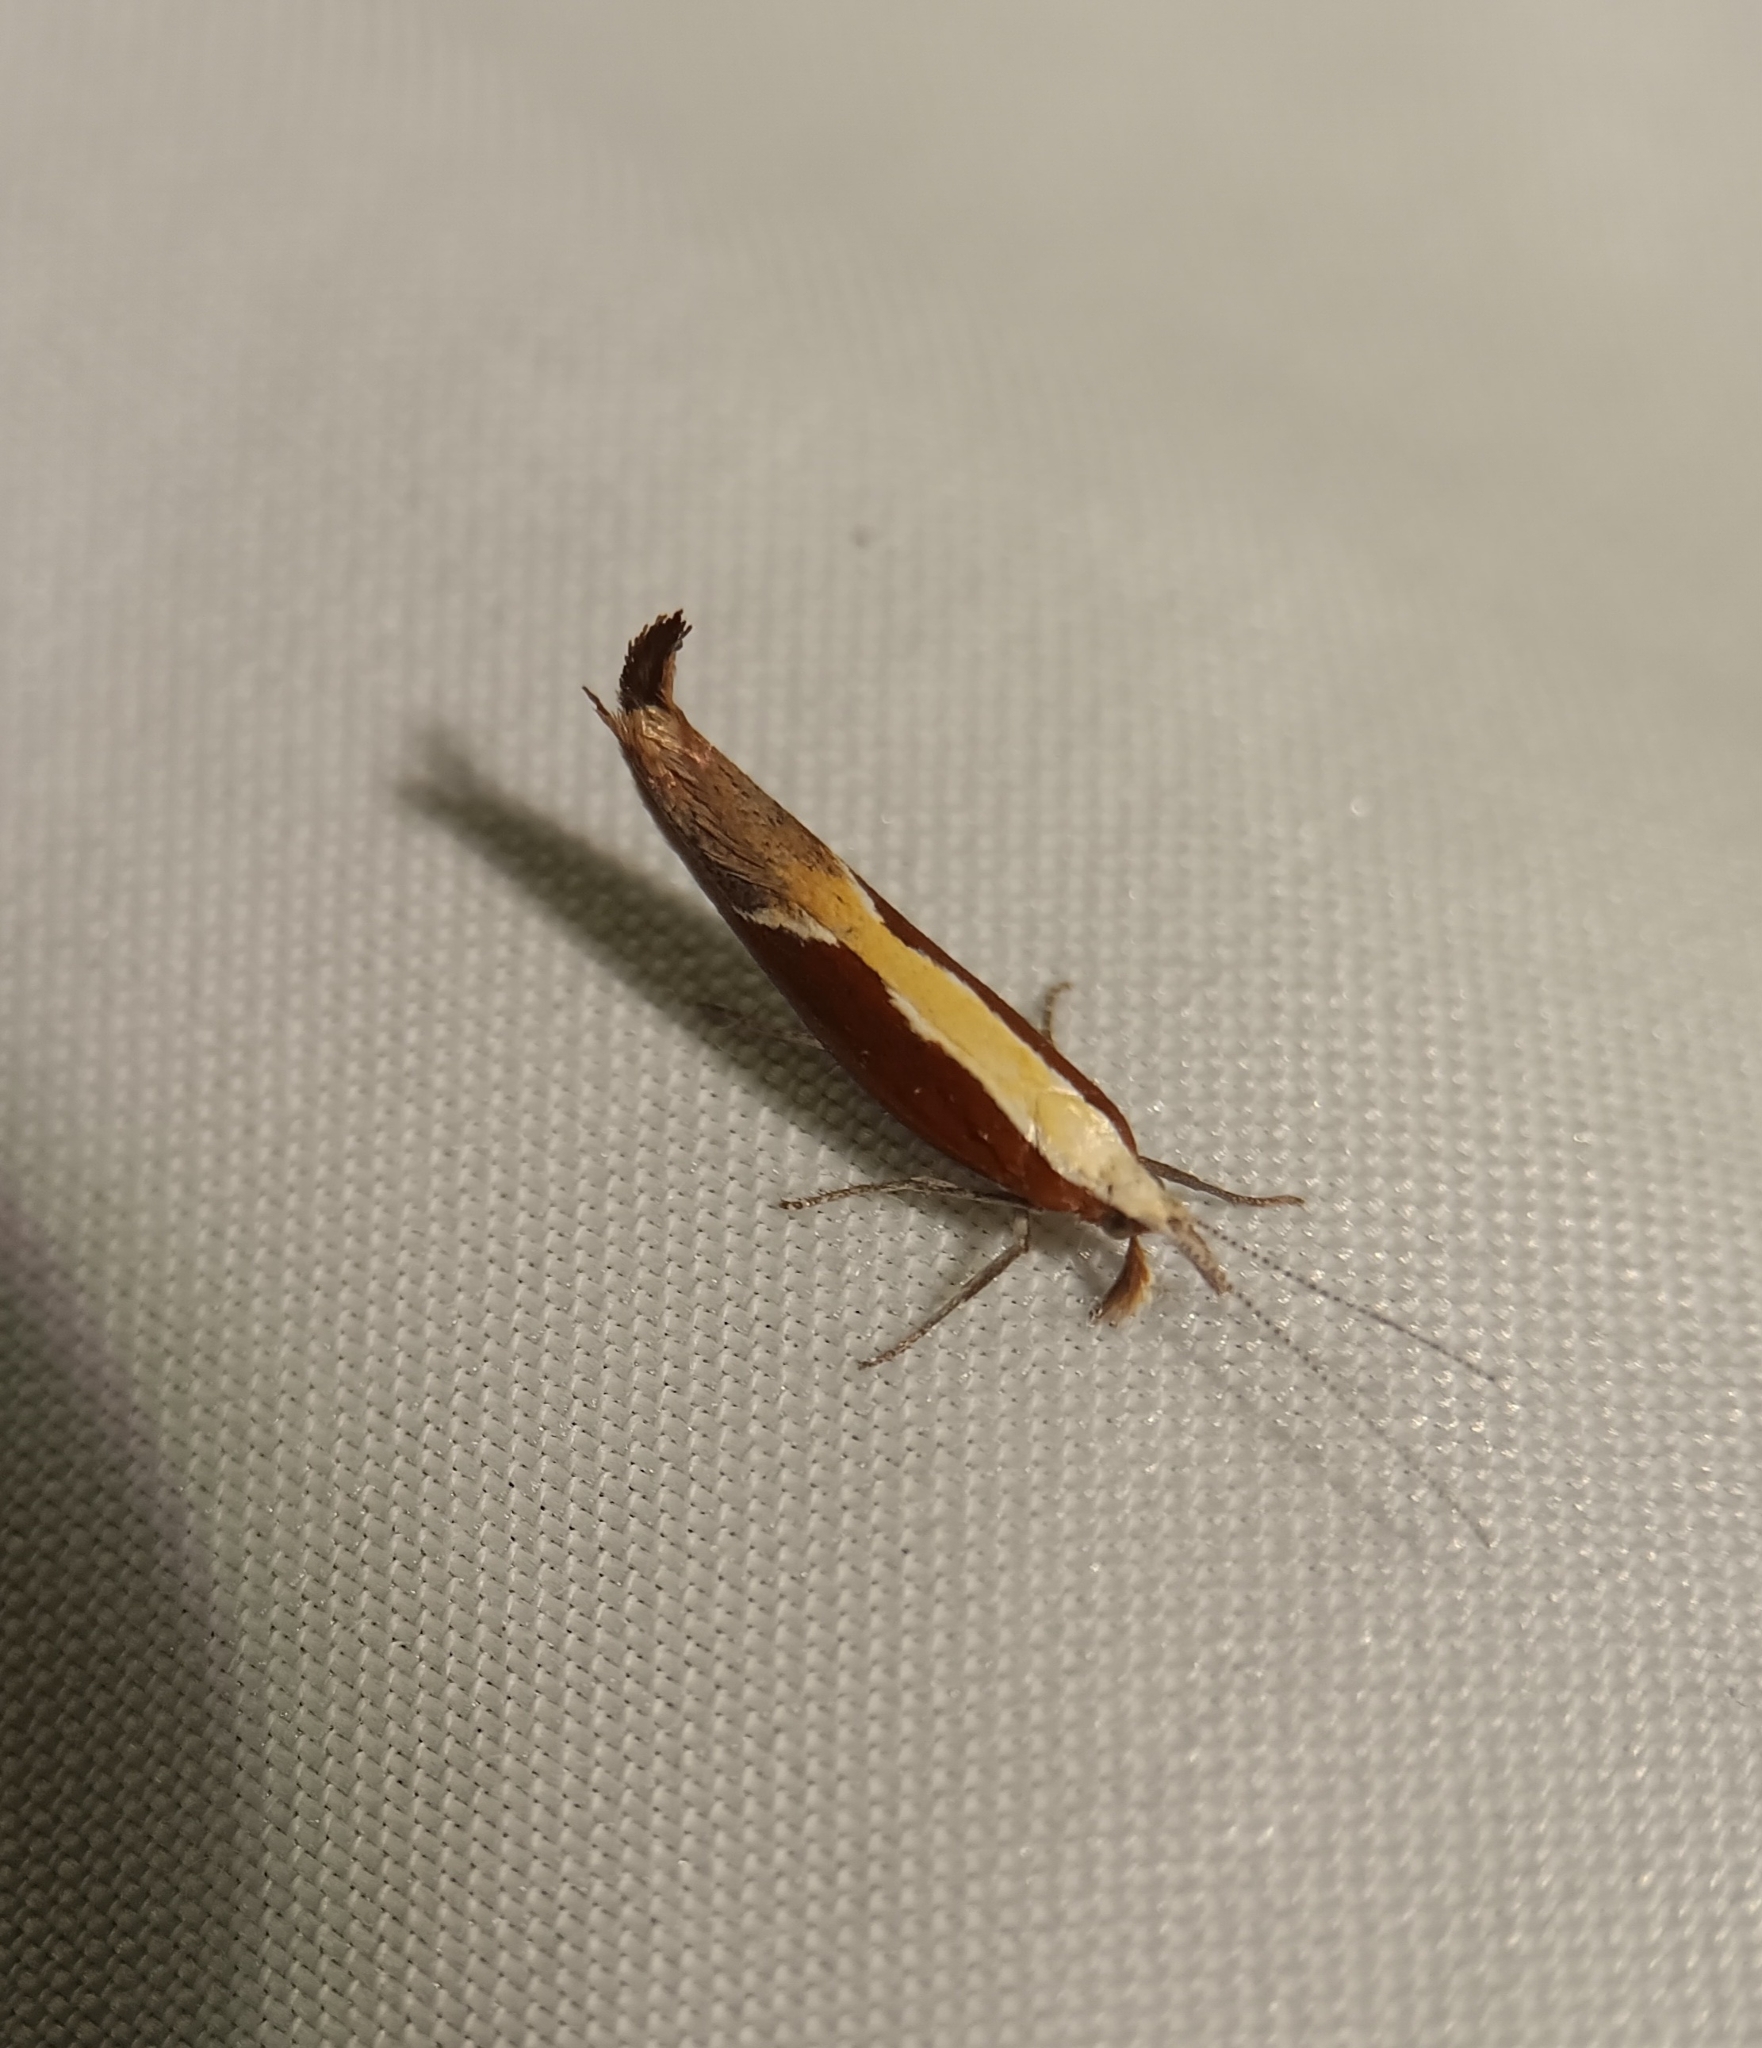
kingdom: Animalia
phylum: Arthropoda
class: Insecta
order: Lepidoptera
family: Ypsolophidae
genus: Ypsolopha
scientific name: Ypsolopha dentella
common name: Honeysuckle moth
